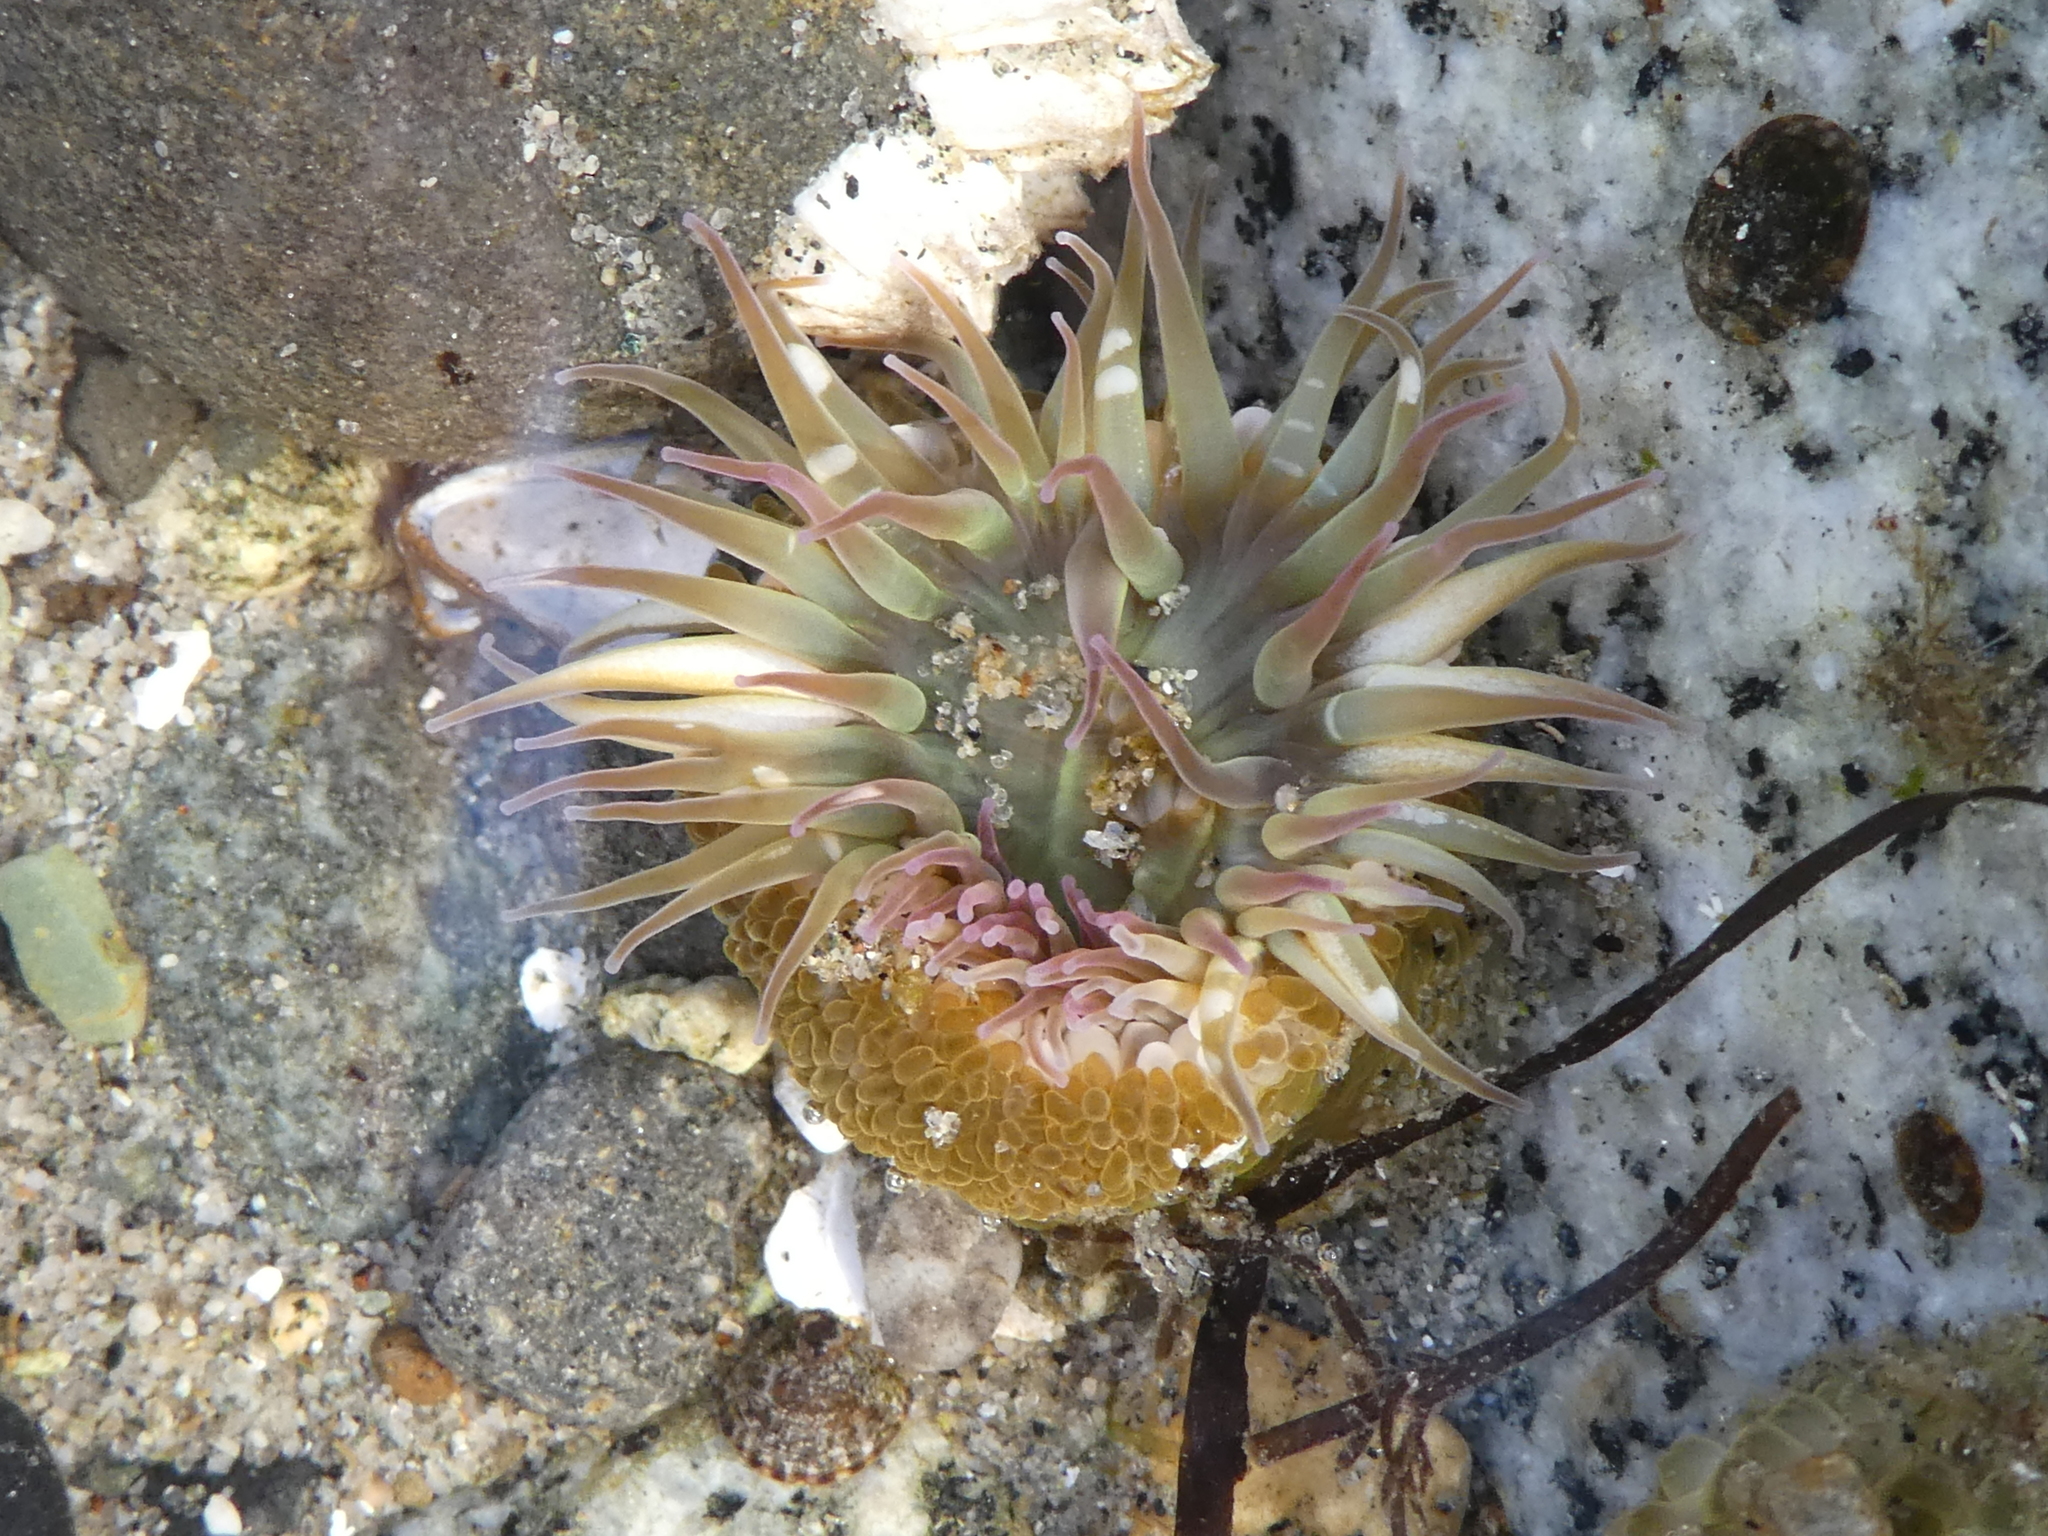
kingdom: Animalia
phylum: Cnidaria
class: Anthozoa
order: Actiniaria
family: Actiniidae
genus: Anthopleura
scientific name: Anthopleura elegantissima
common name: Clonal anemone
